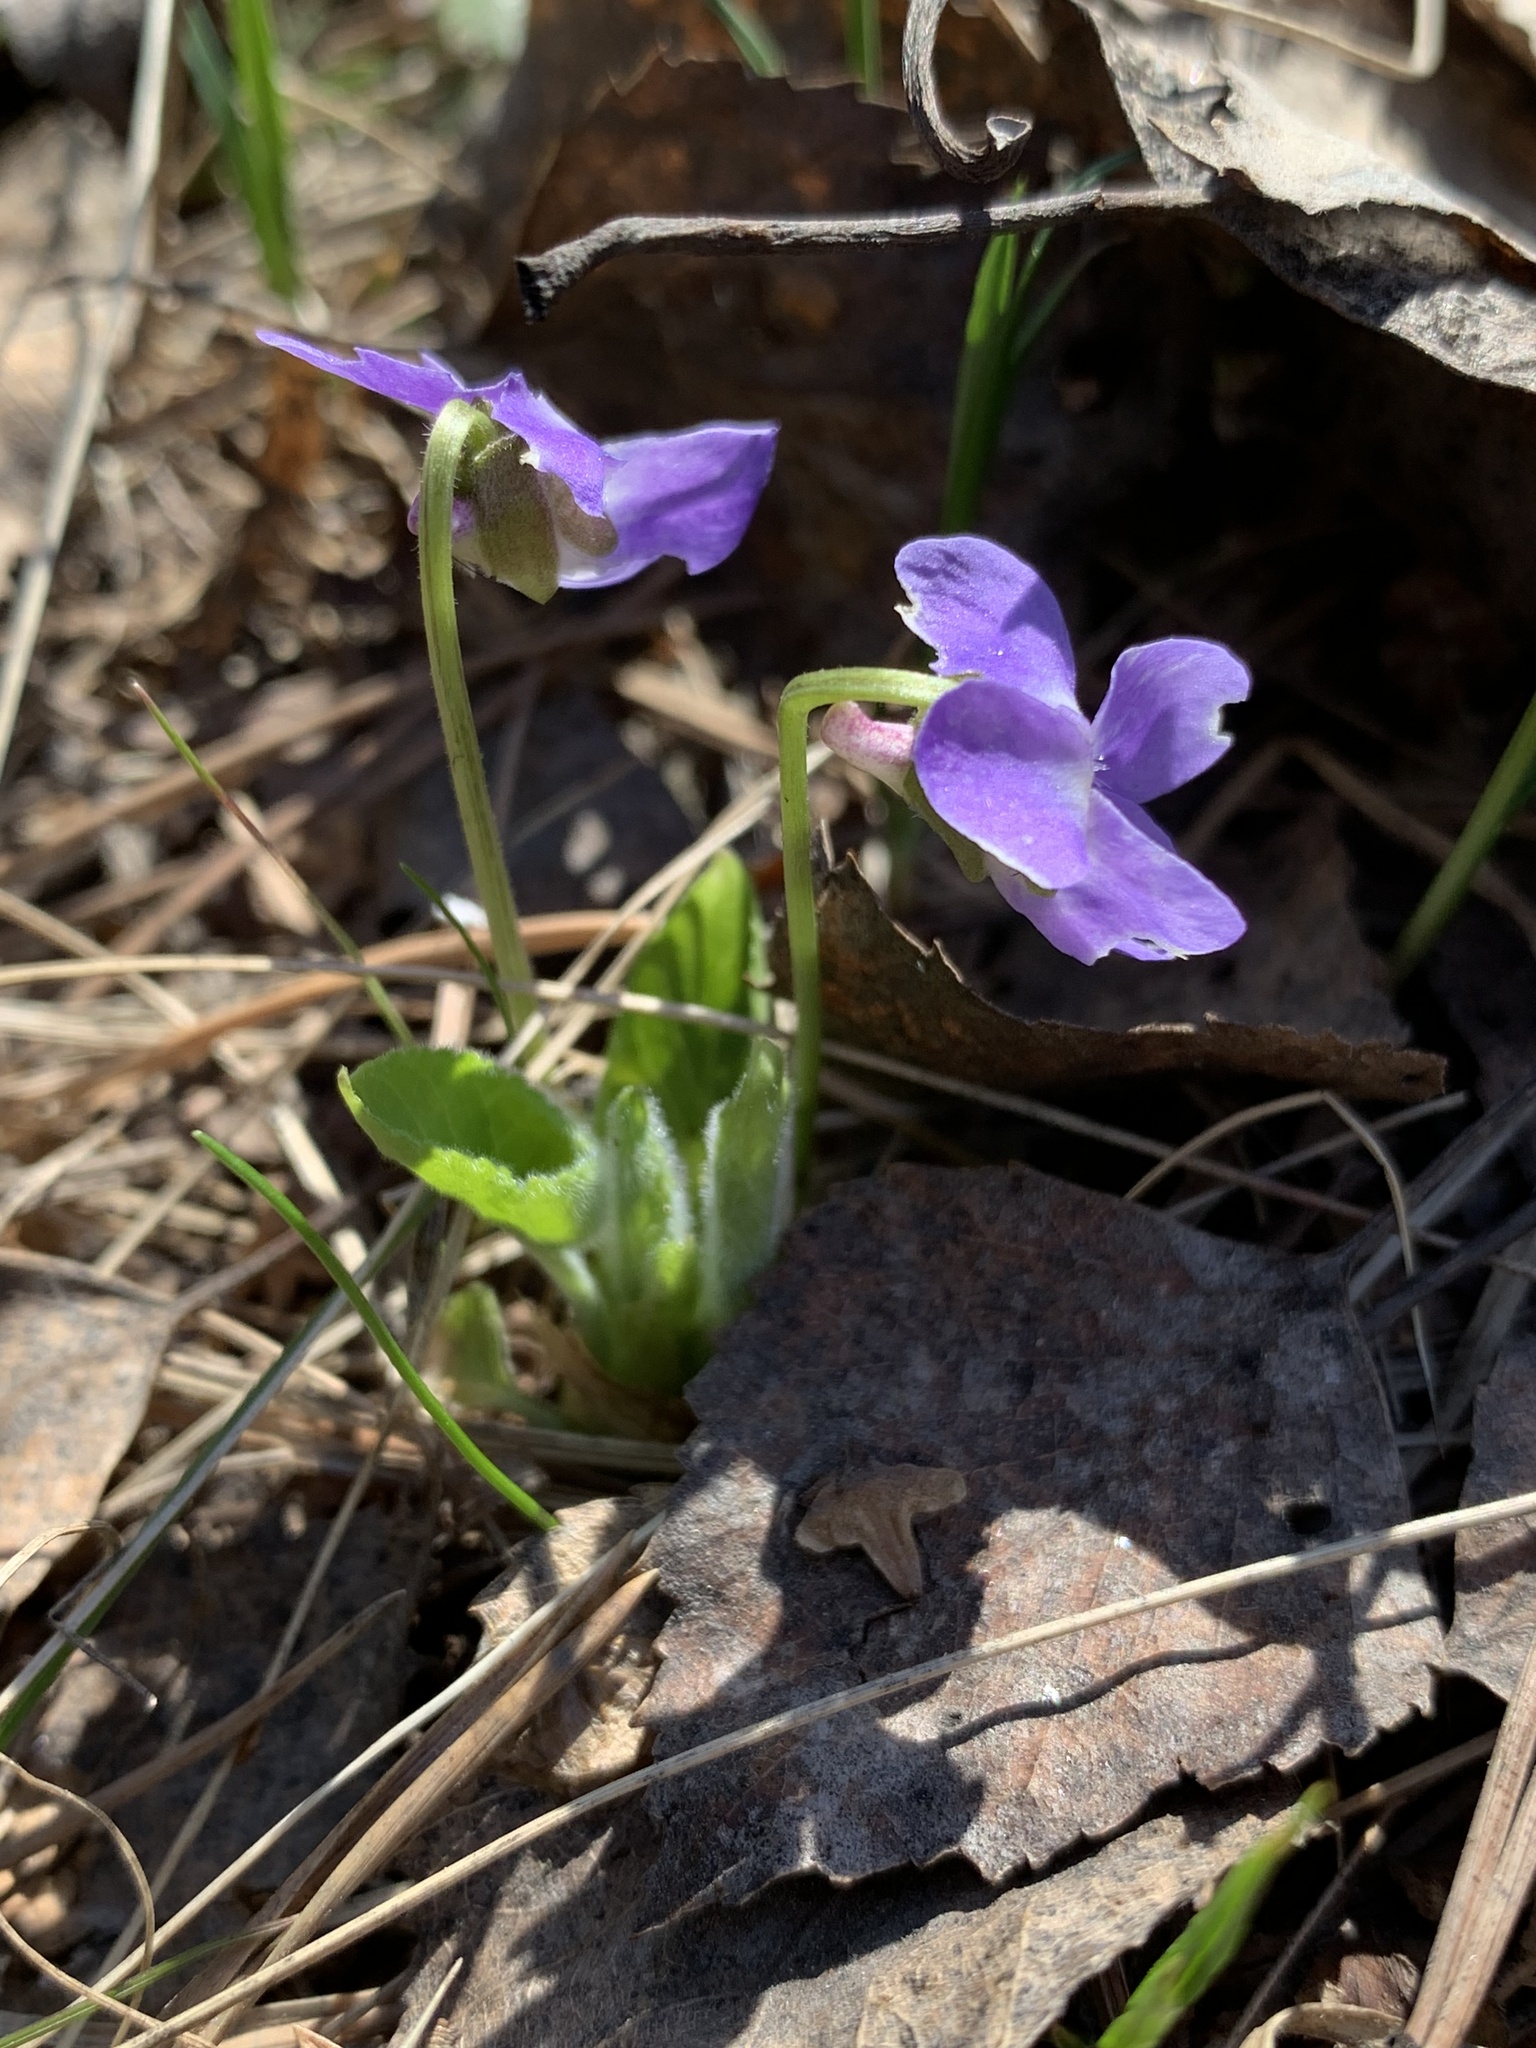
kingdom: Plantae
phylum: Tracheophyta
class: Magnoliopsida
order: Malpighiales
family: Violaceae
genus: Viola
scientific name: Viola hirta
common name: Hairy violet
